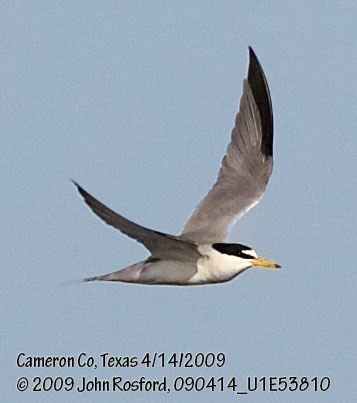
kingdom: Animalia
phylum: Chordata
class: Aves
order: Charadriiformes
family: Laridae
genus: Sternula
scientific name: Sternula antillarum
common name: Least tern
